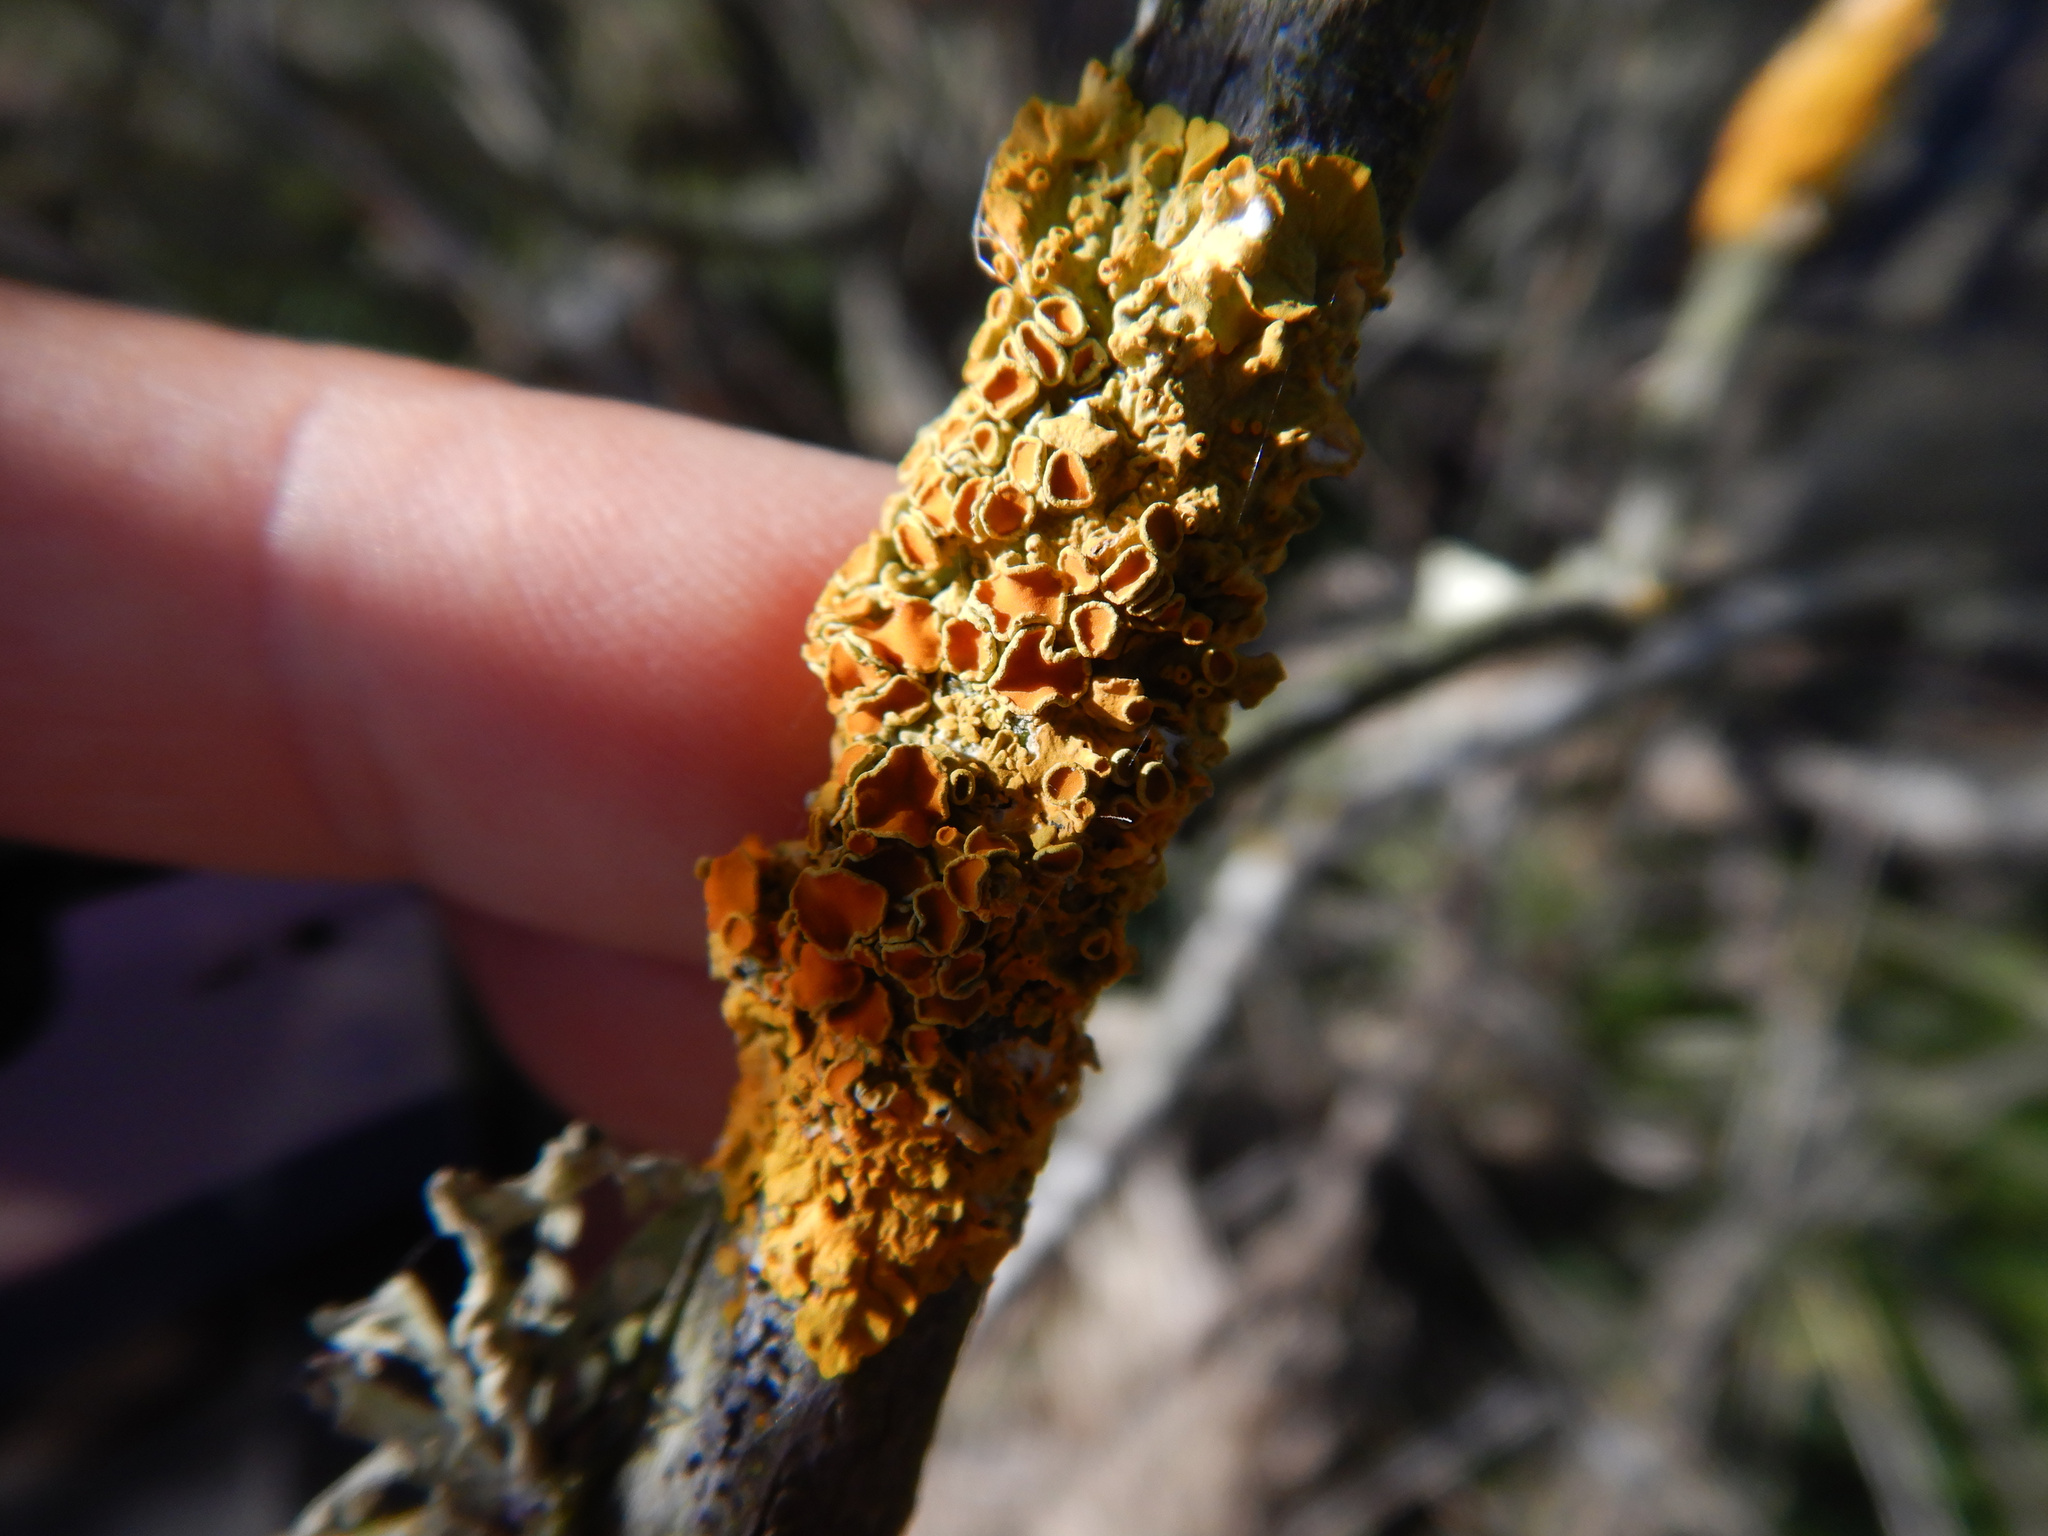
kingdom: Fungi
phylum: Ascomycota
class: Lecanoromycetes
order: Teloschistales
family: Teloschistaceae
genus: Xanthoria
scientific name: Xanthoria parietina
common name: Common orange lichen
